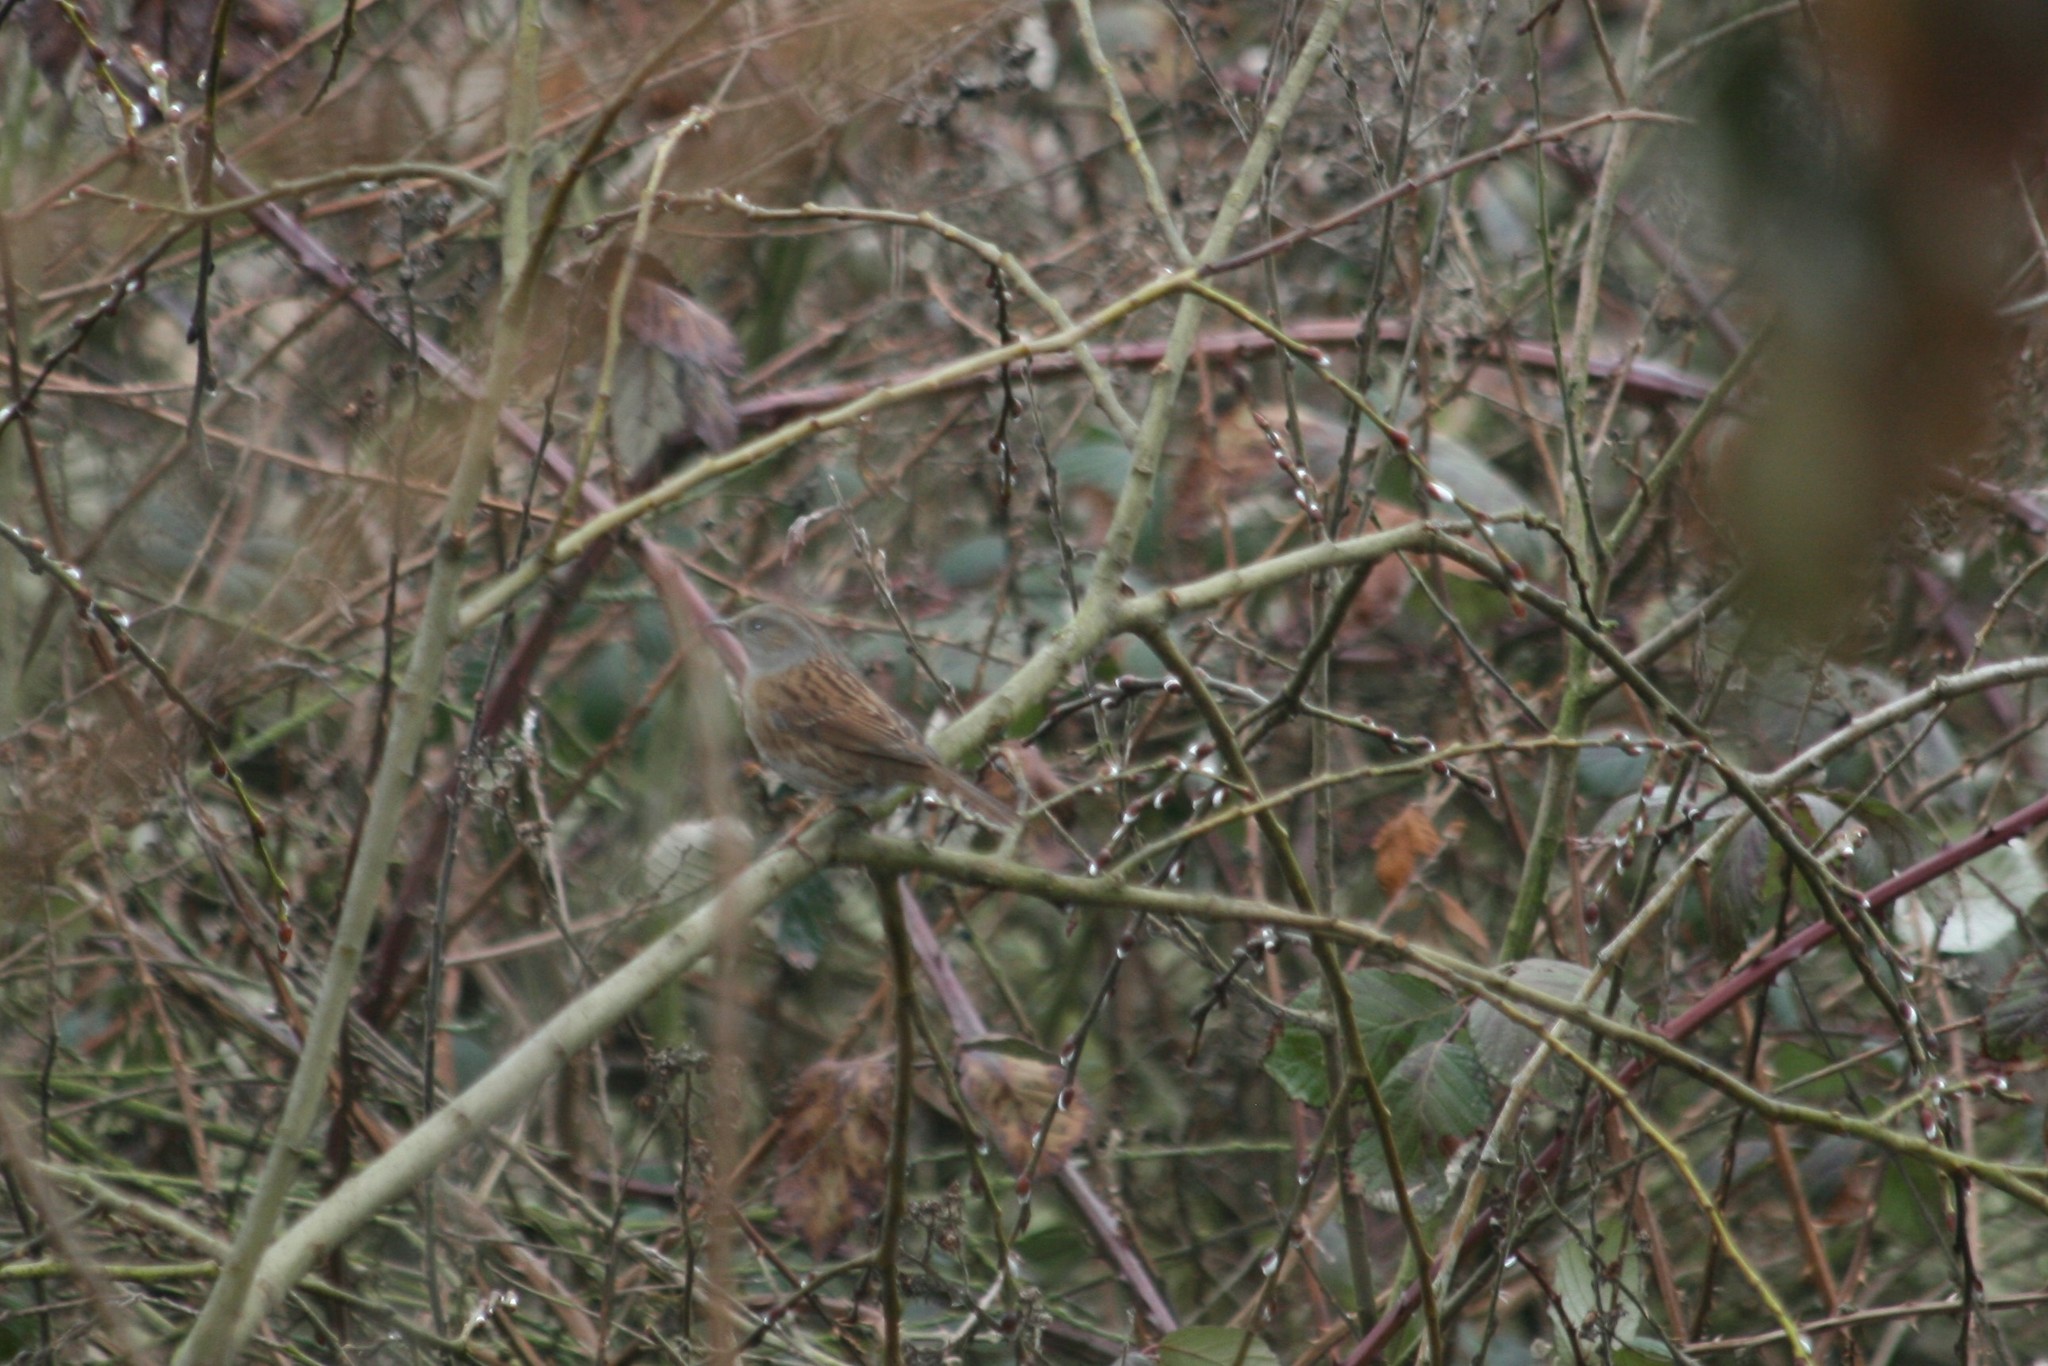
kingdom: Animalia
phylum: Chordata
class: Aves
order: Passeriformes
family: Prunellidae
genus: Prunella
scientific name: Prunella modularis
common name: Dunnock
